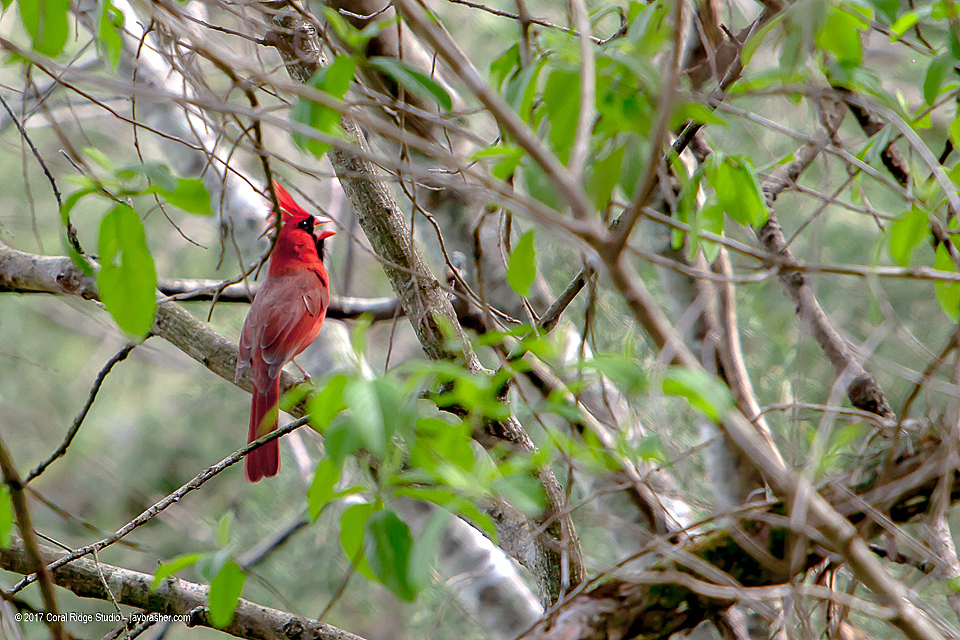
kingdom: Animalia
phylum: Chordata
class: Aves
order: Passeriformes
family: Cardinalidae
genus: Cardinalis
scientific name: Cardinalis cardinalis
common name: Northern cardinal
